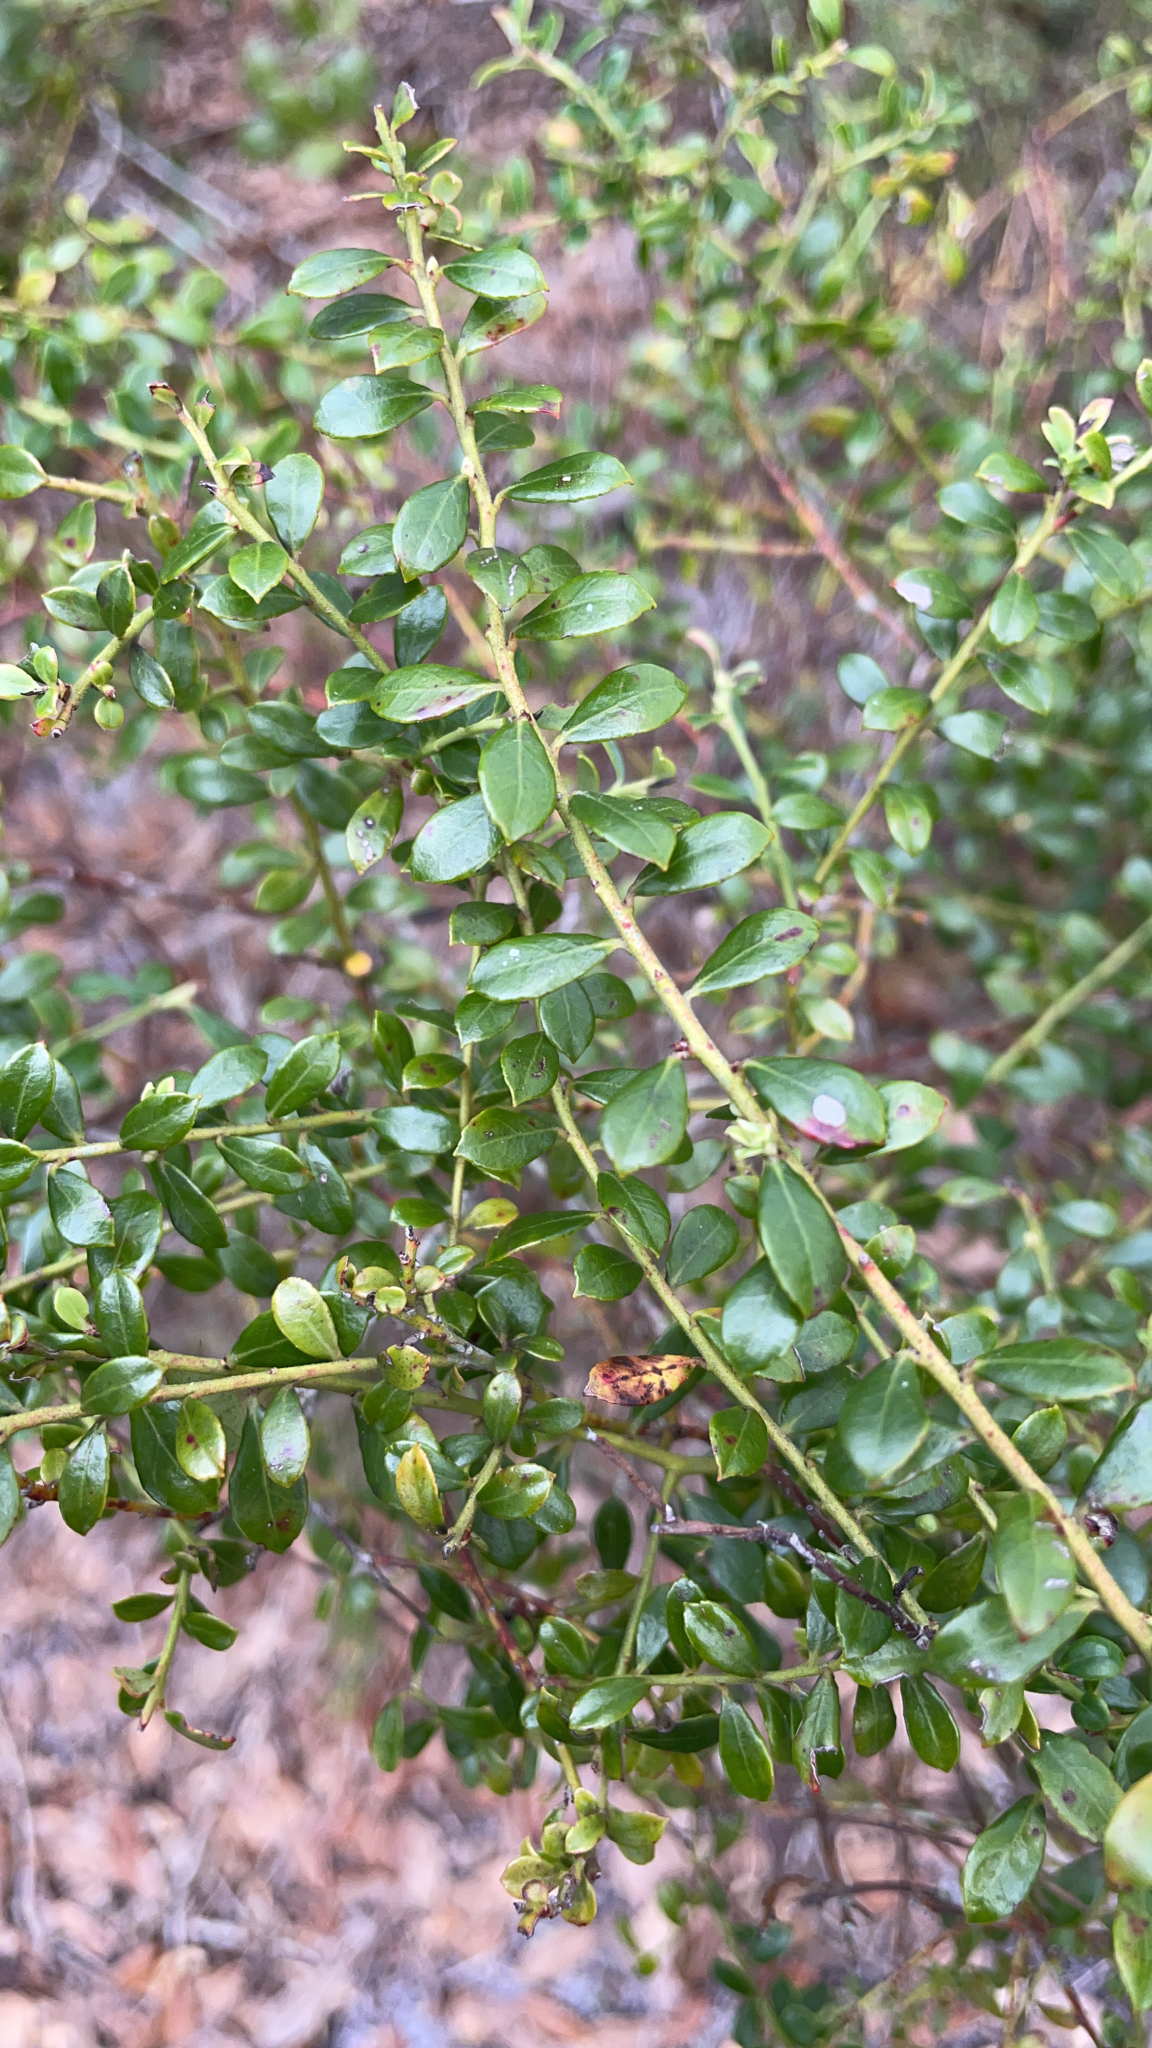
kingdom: Plantae
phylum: Tracheophyta
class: Magnoliopsida
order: Ericales
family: Ericaceae
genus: Vaccinium
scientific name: Vaccinium myrsinites
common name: Evergreen blueberry
